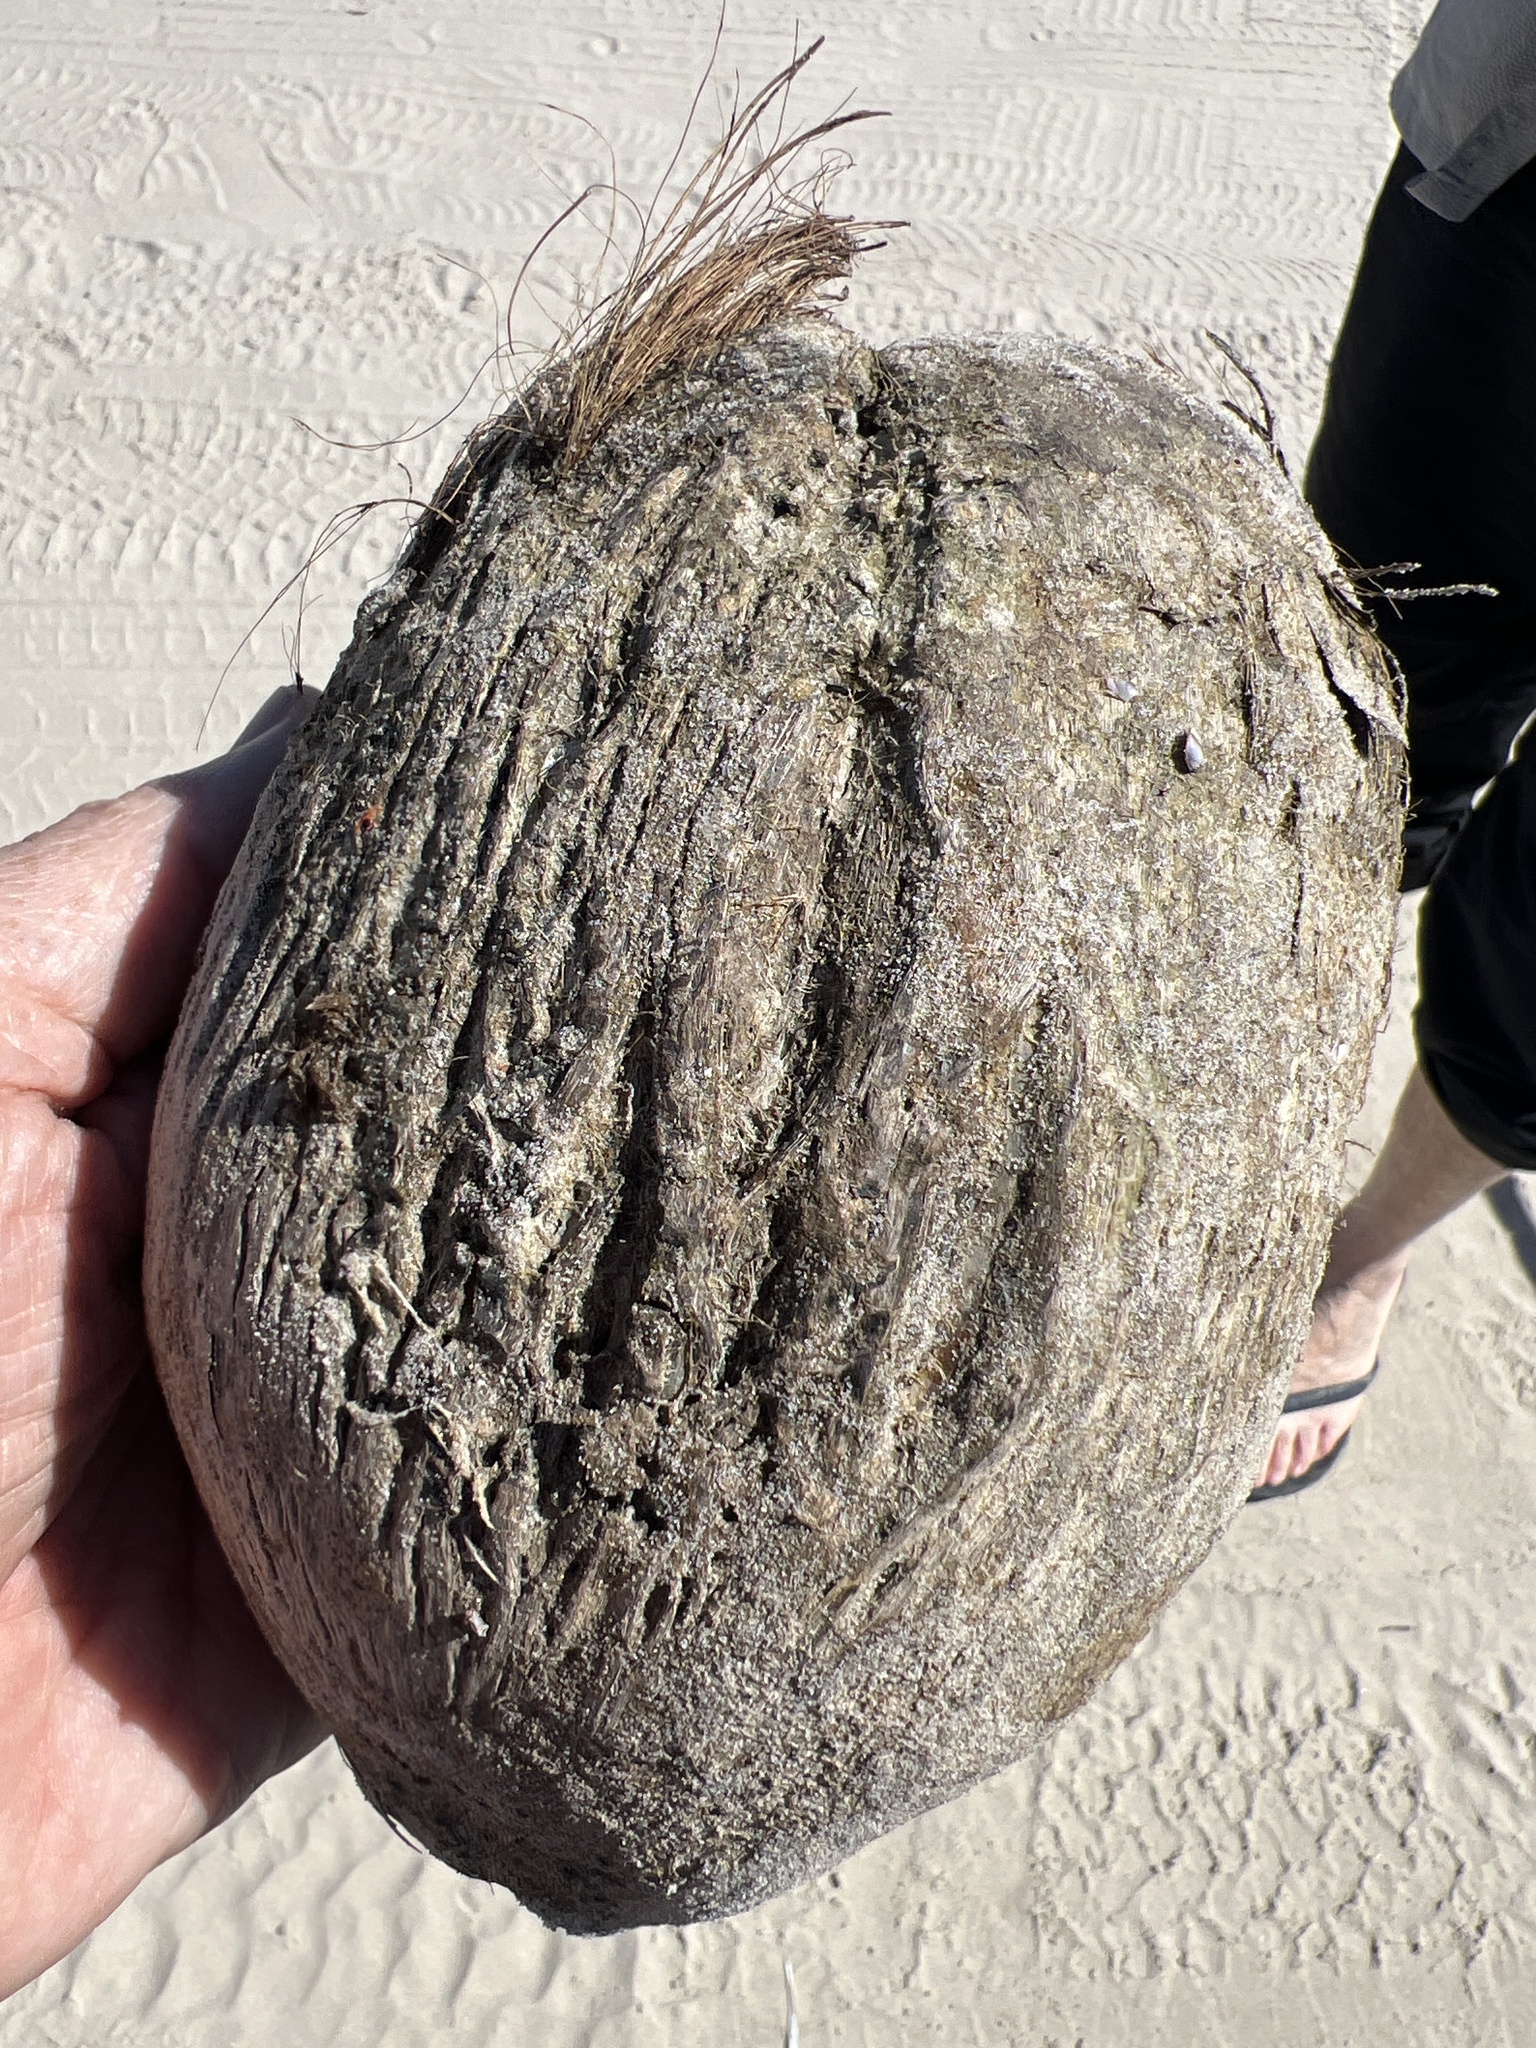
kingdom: Plantae
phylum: Tracheophyta
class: Liliopsida
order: Arecales
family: Arecaceae
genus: Cocos
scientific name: Cocos nucifera
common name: Coconut palm
